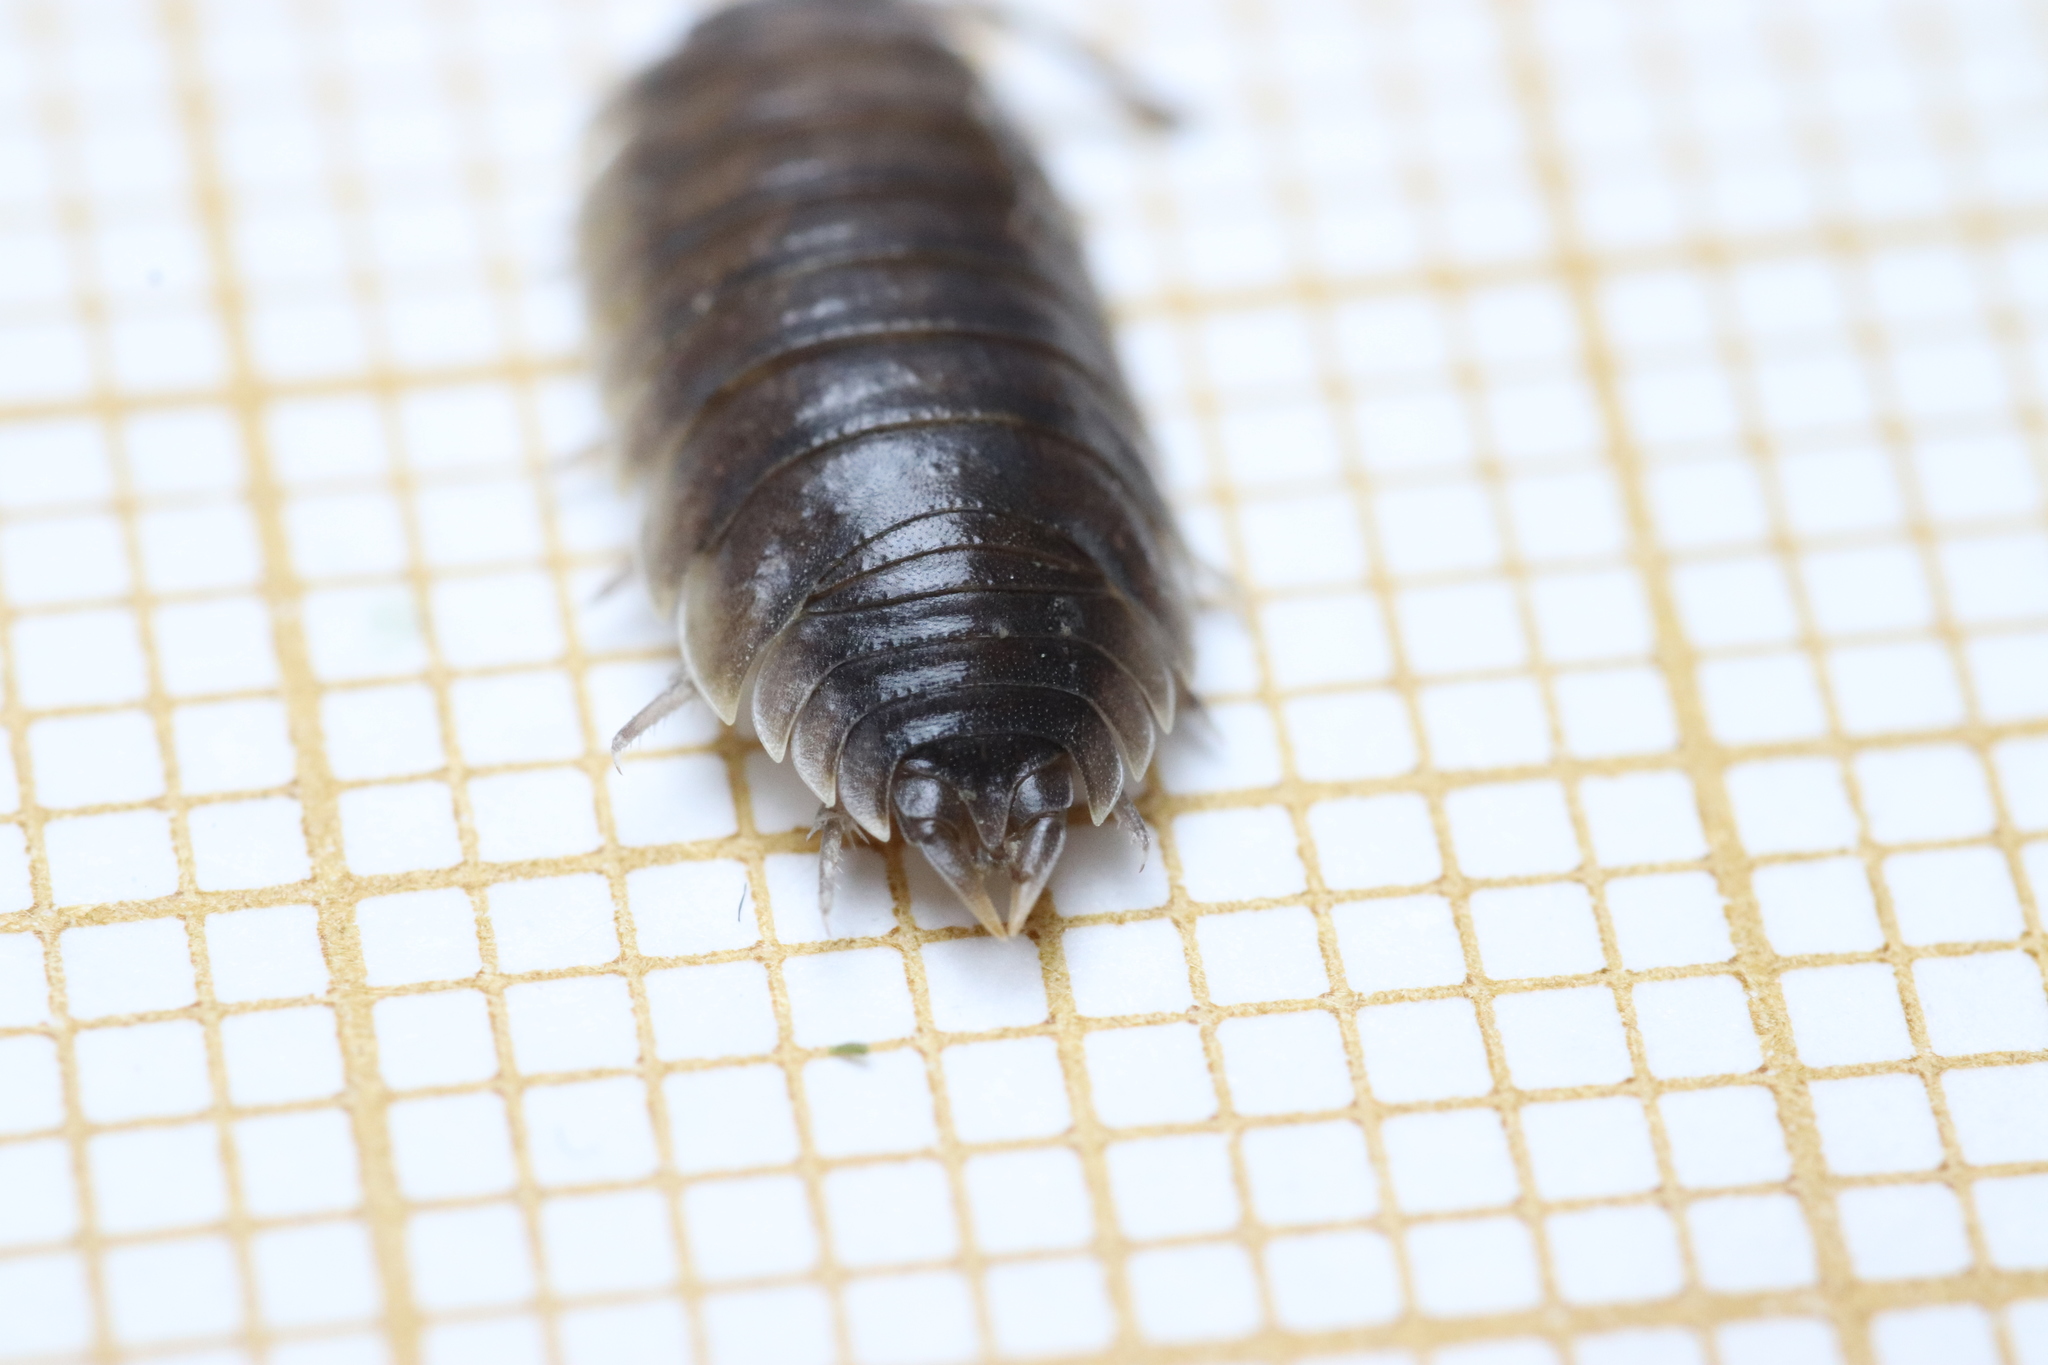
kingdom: Animalia
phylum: Arthropoda
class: Malacostraca
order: Isopoda
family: Porcellionidae
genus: Porcellio
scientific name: Porcellio orarum
